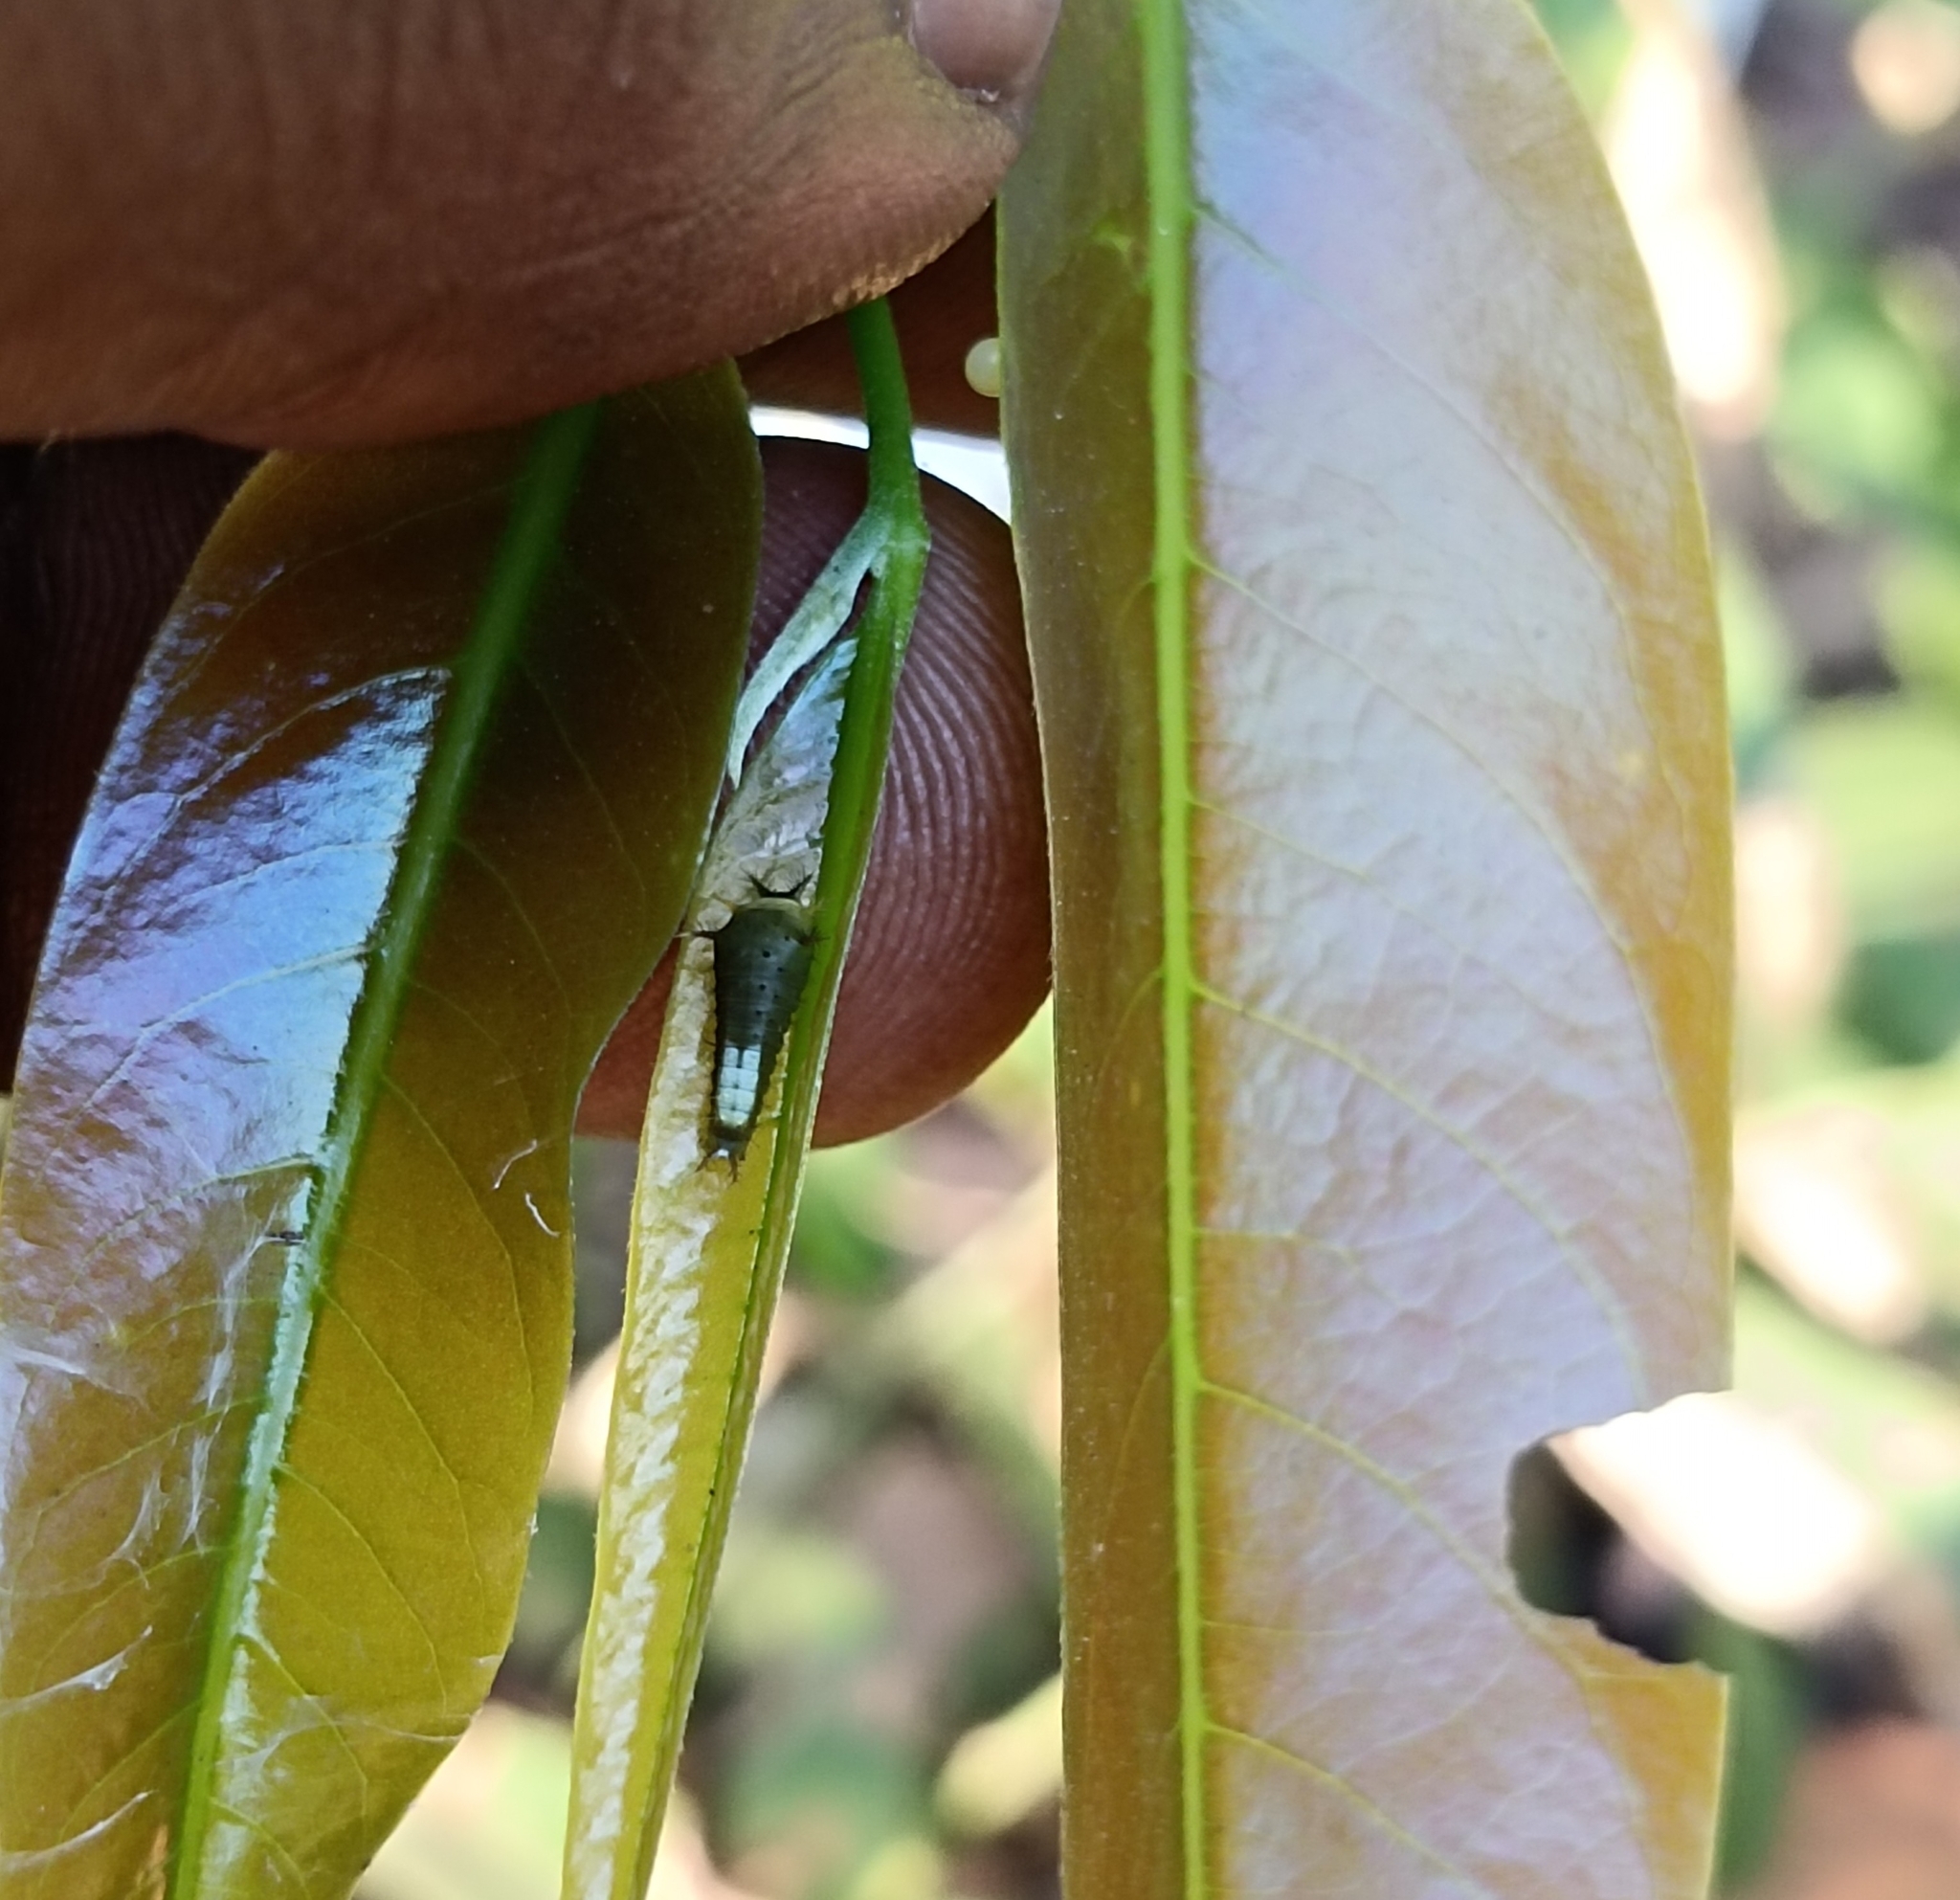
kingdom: Animalia
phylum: Arthropoda
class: Insecta
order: Lepidoptera
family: Papilionidae
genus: Graphium
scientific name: Graphium agamemnon
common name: Tailed jay
